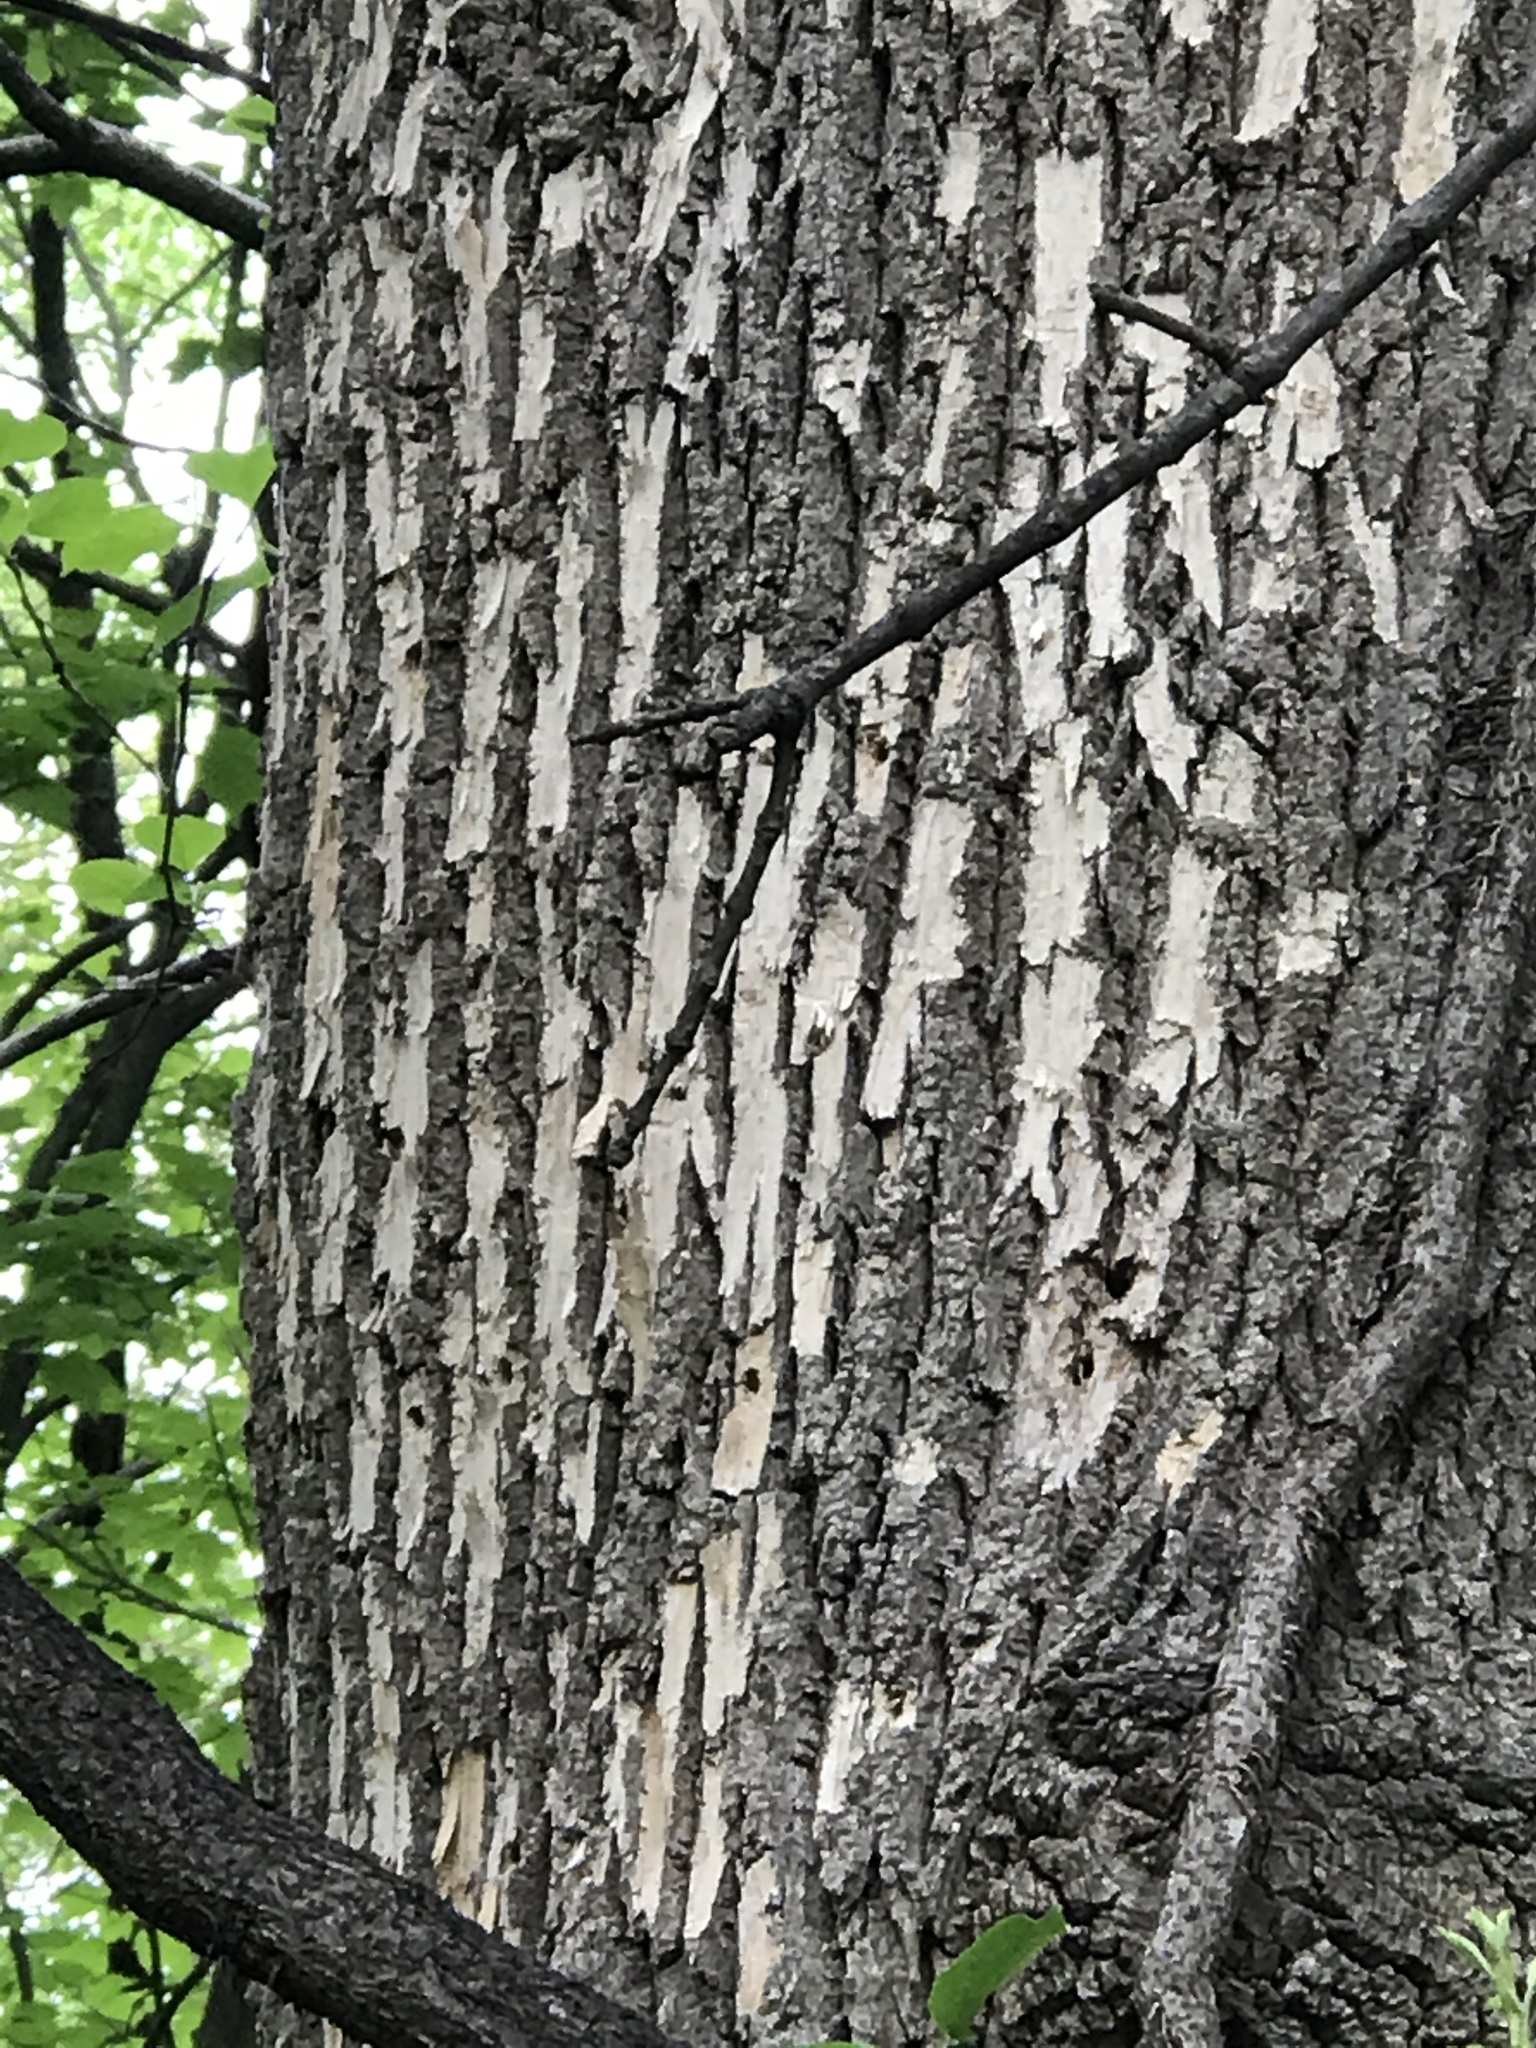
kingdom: Animalia
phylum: Arthropoda
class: Insecta
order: Coleoptera
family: Buprestidae
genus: Agrilus
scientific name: Agrilus planipennis
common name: Emerald ash borer
